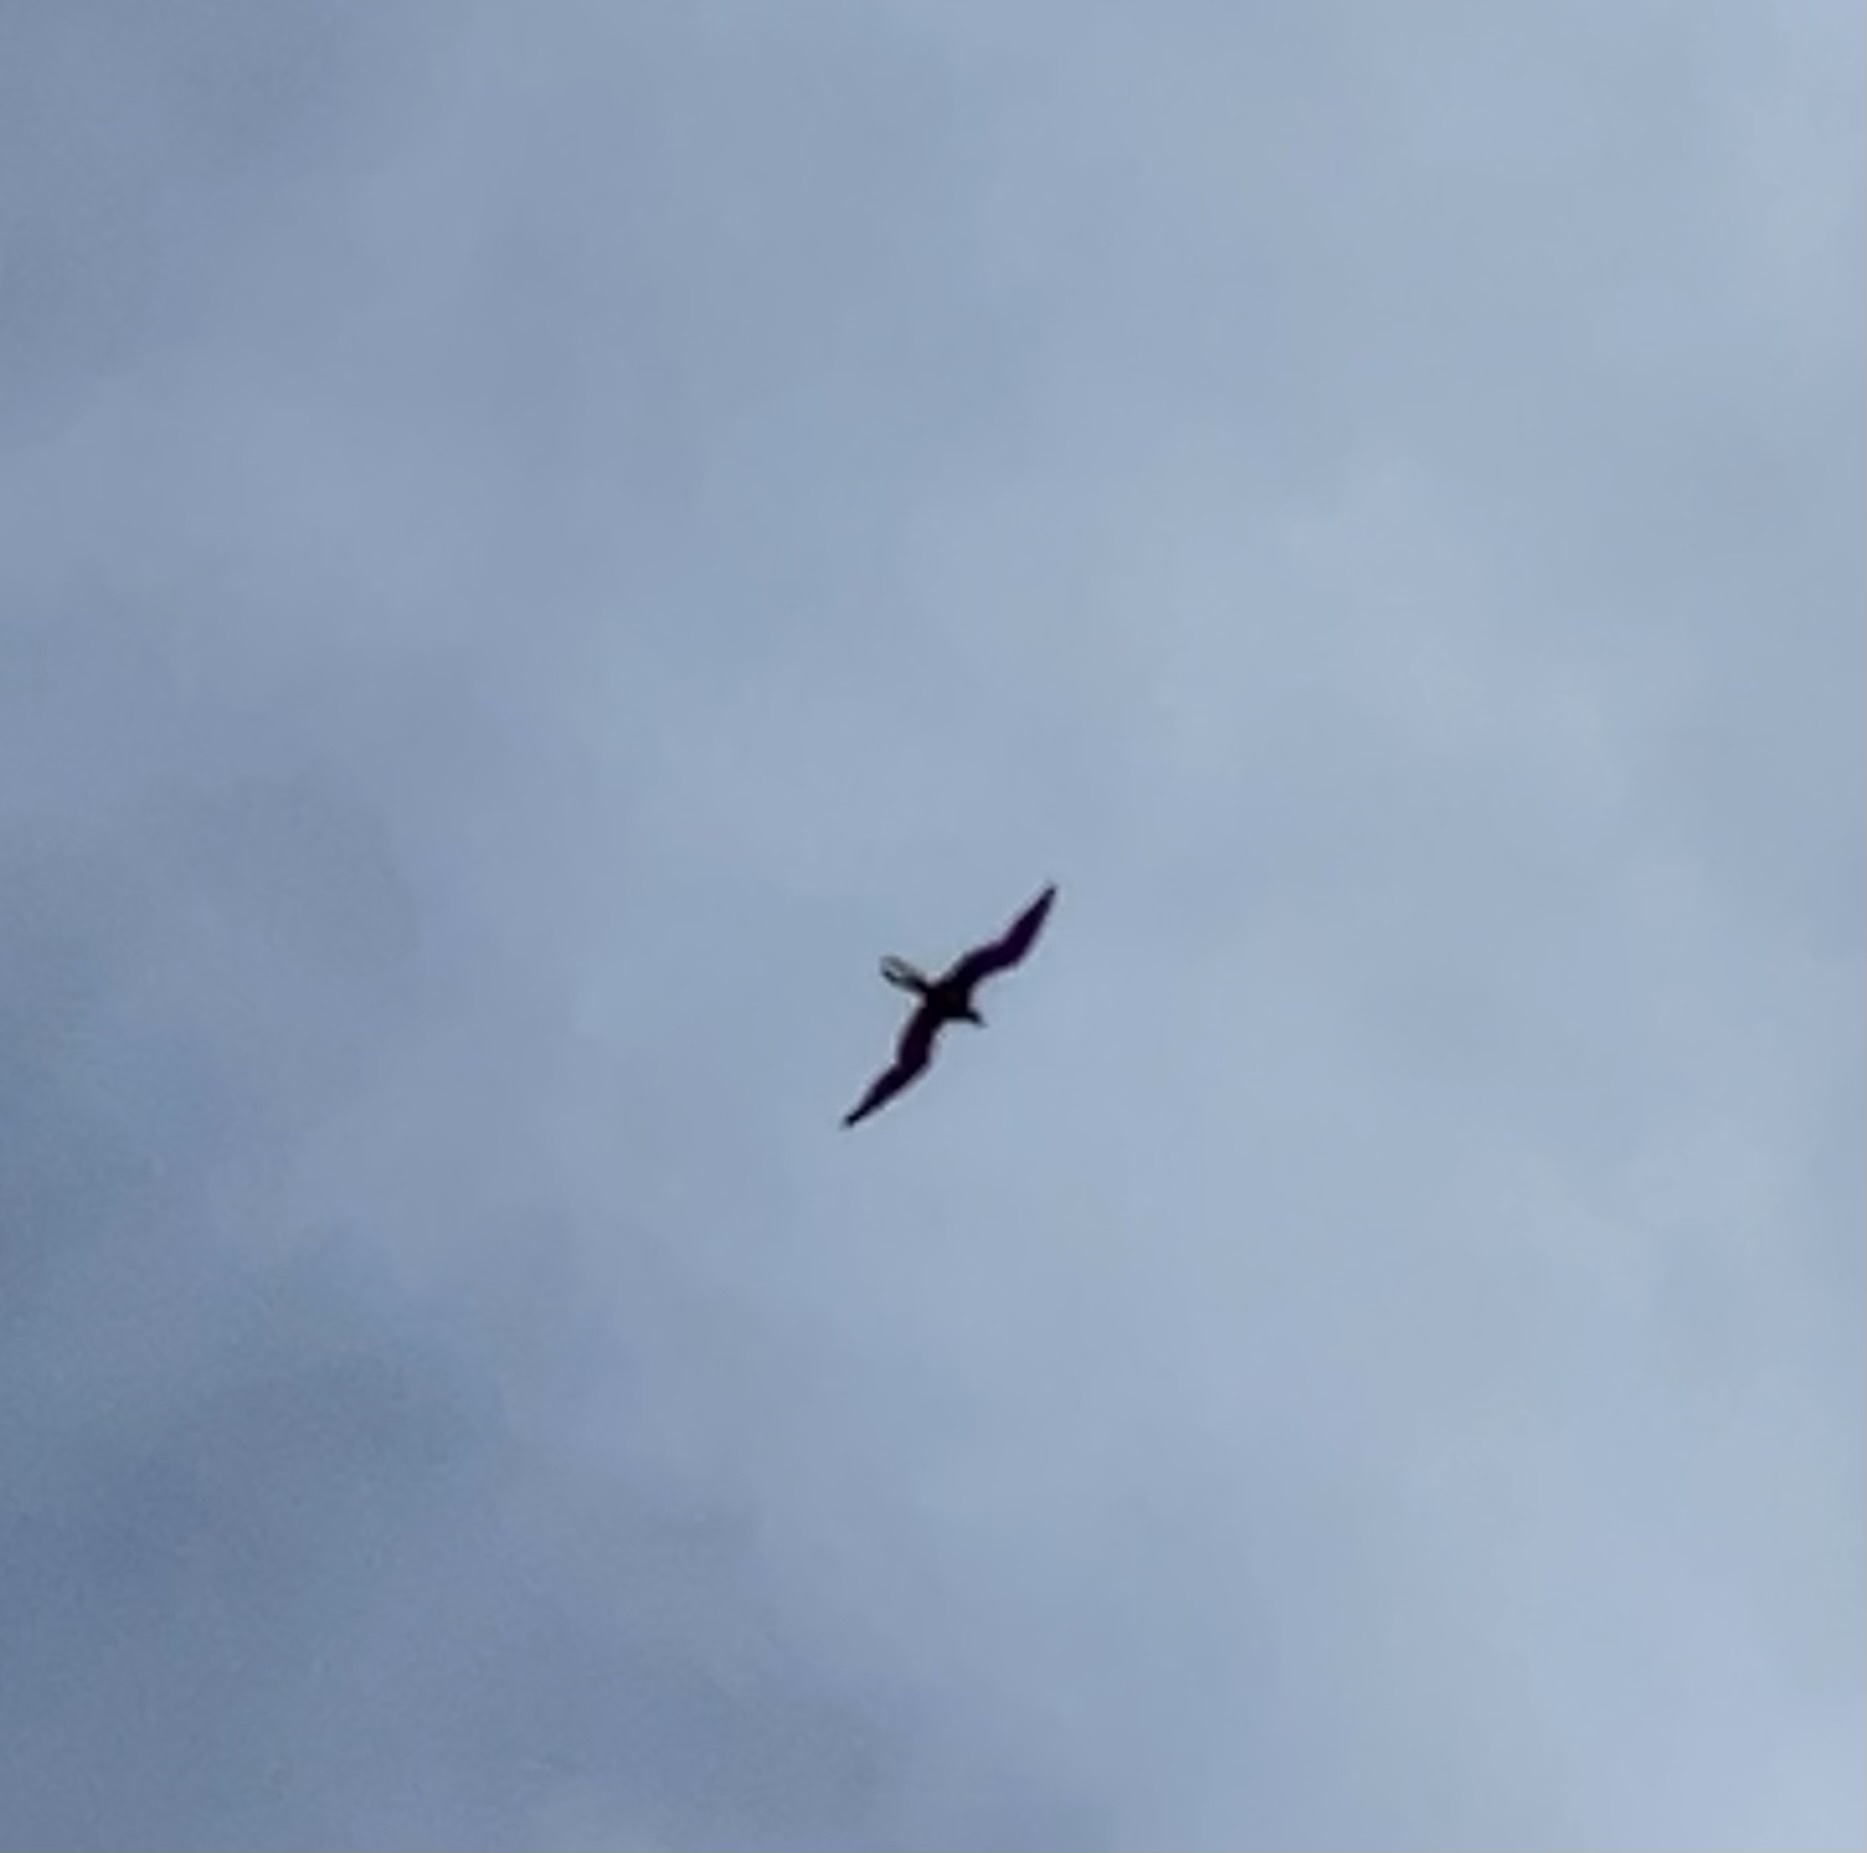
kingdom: Animalia
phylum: Chordata
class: Aves
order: Suliformes
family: Fregatidae
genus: Fregata
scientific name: Fregata magnificens
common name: Magnificent frigatebird
